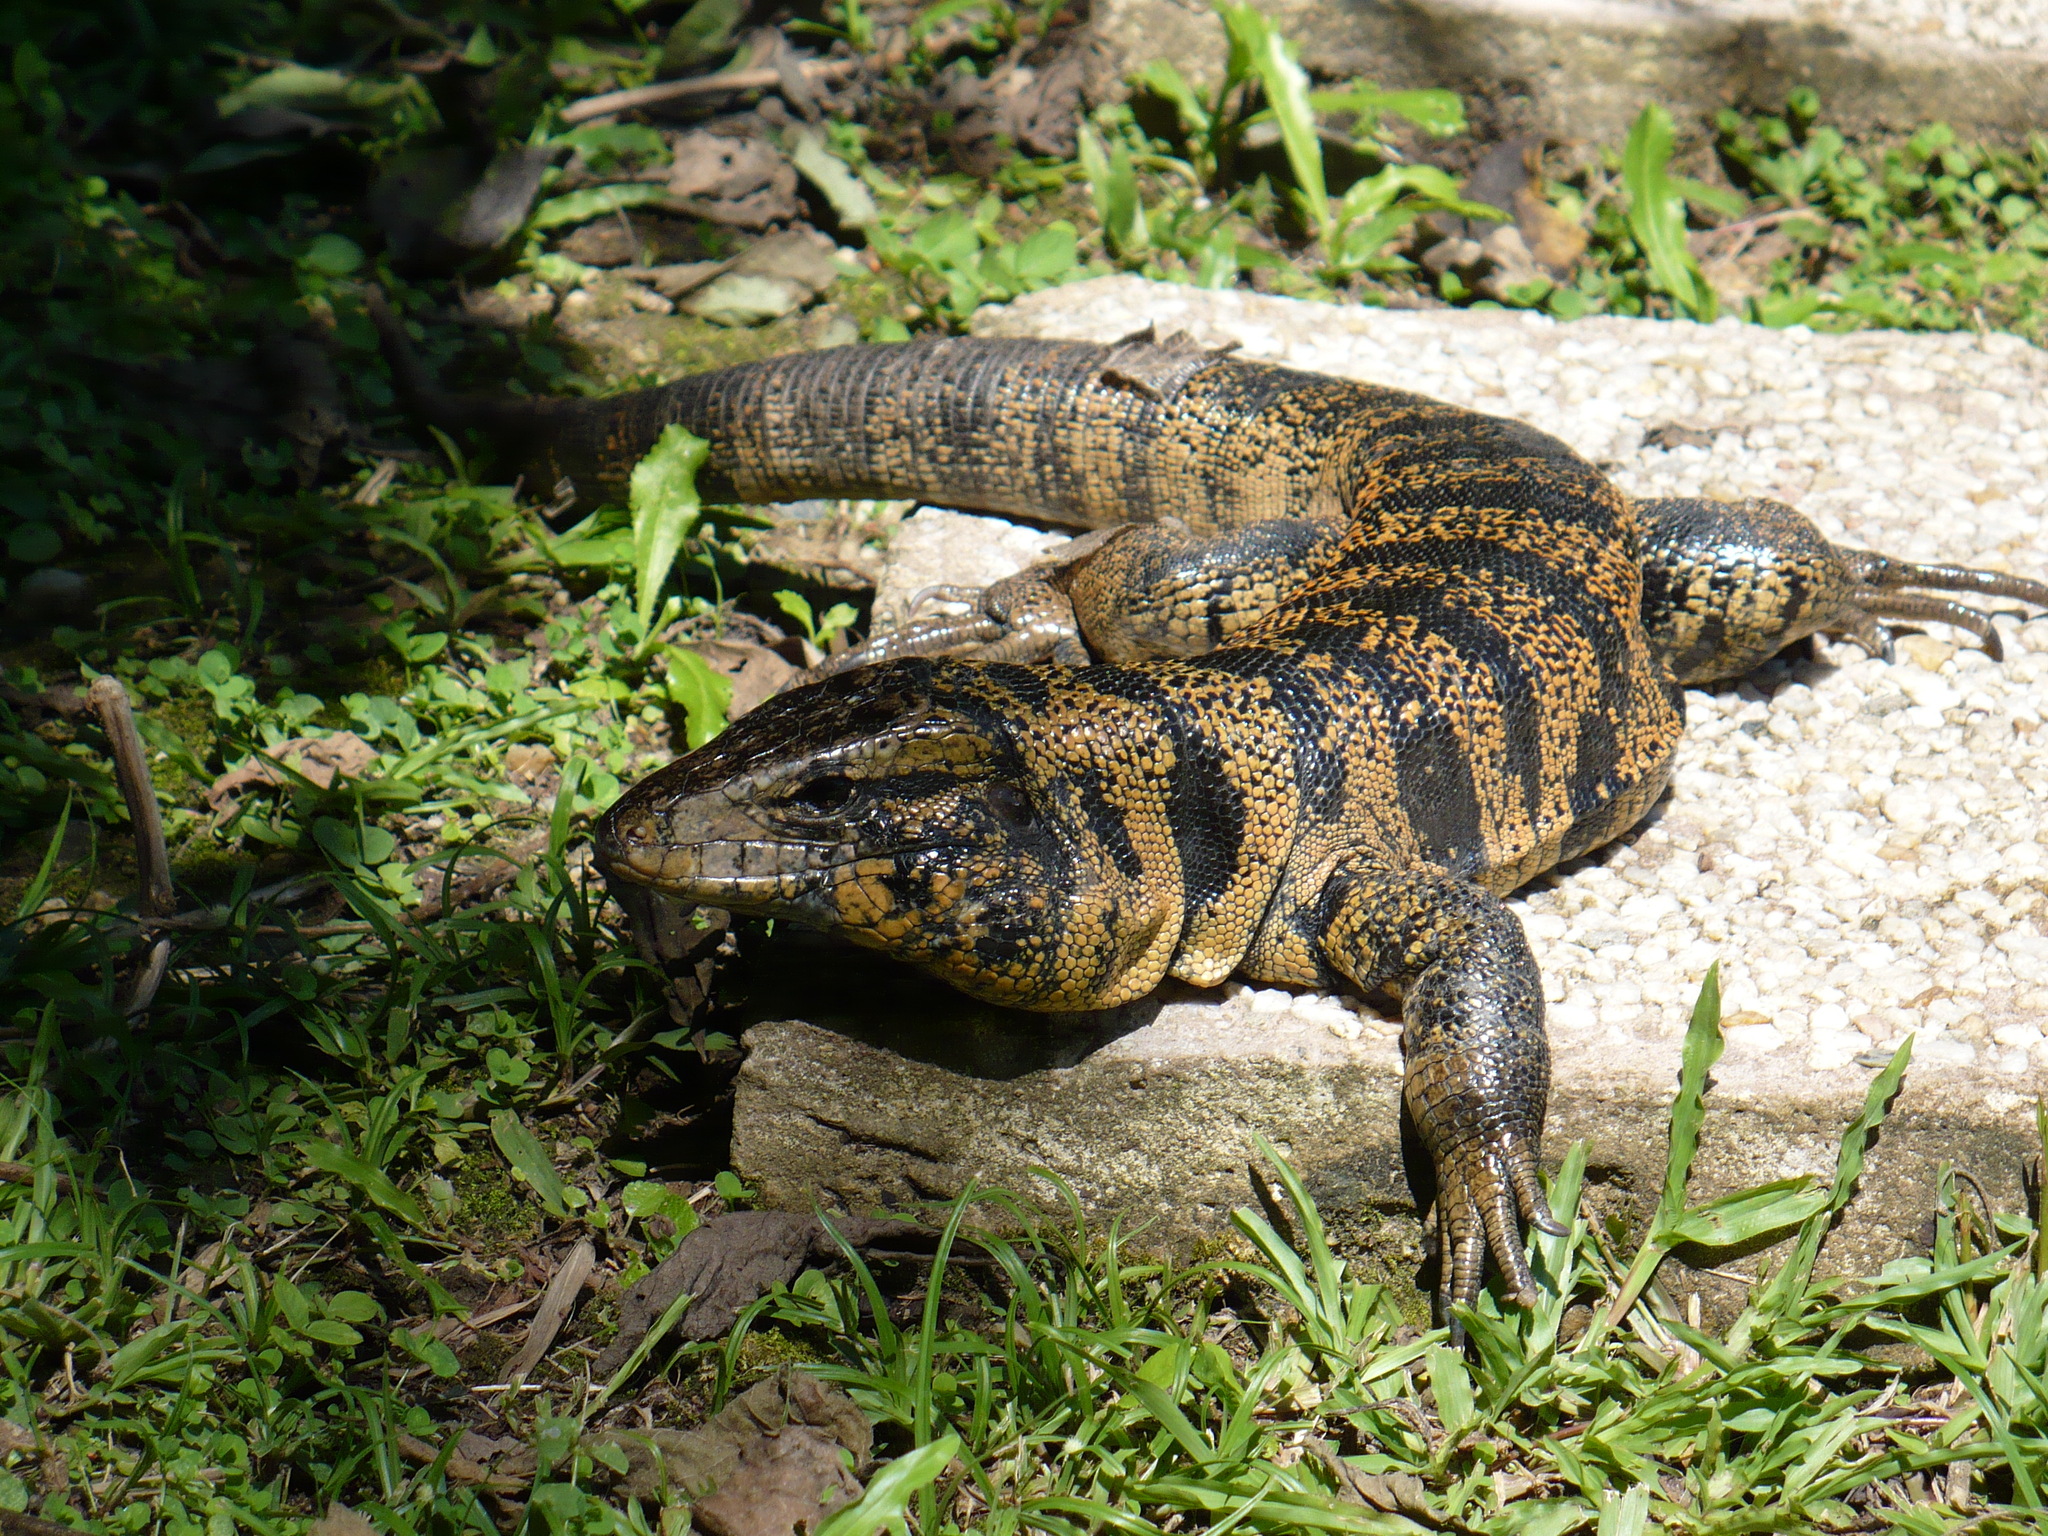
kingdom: Animalia
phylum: Chordata
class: Squamata
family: Teiidae
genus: Tupinambis
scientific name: Tupinambis cryptus
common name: Cryptic golden tegu
